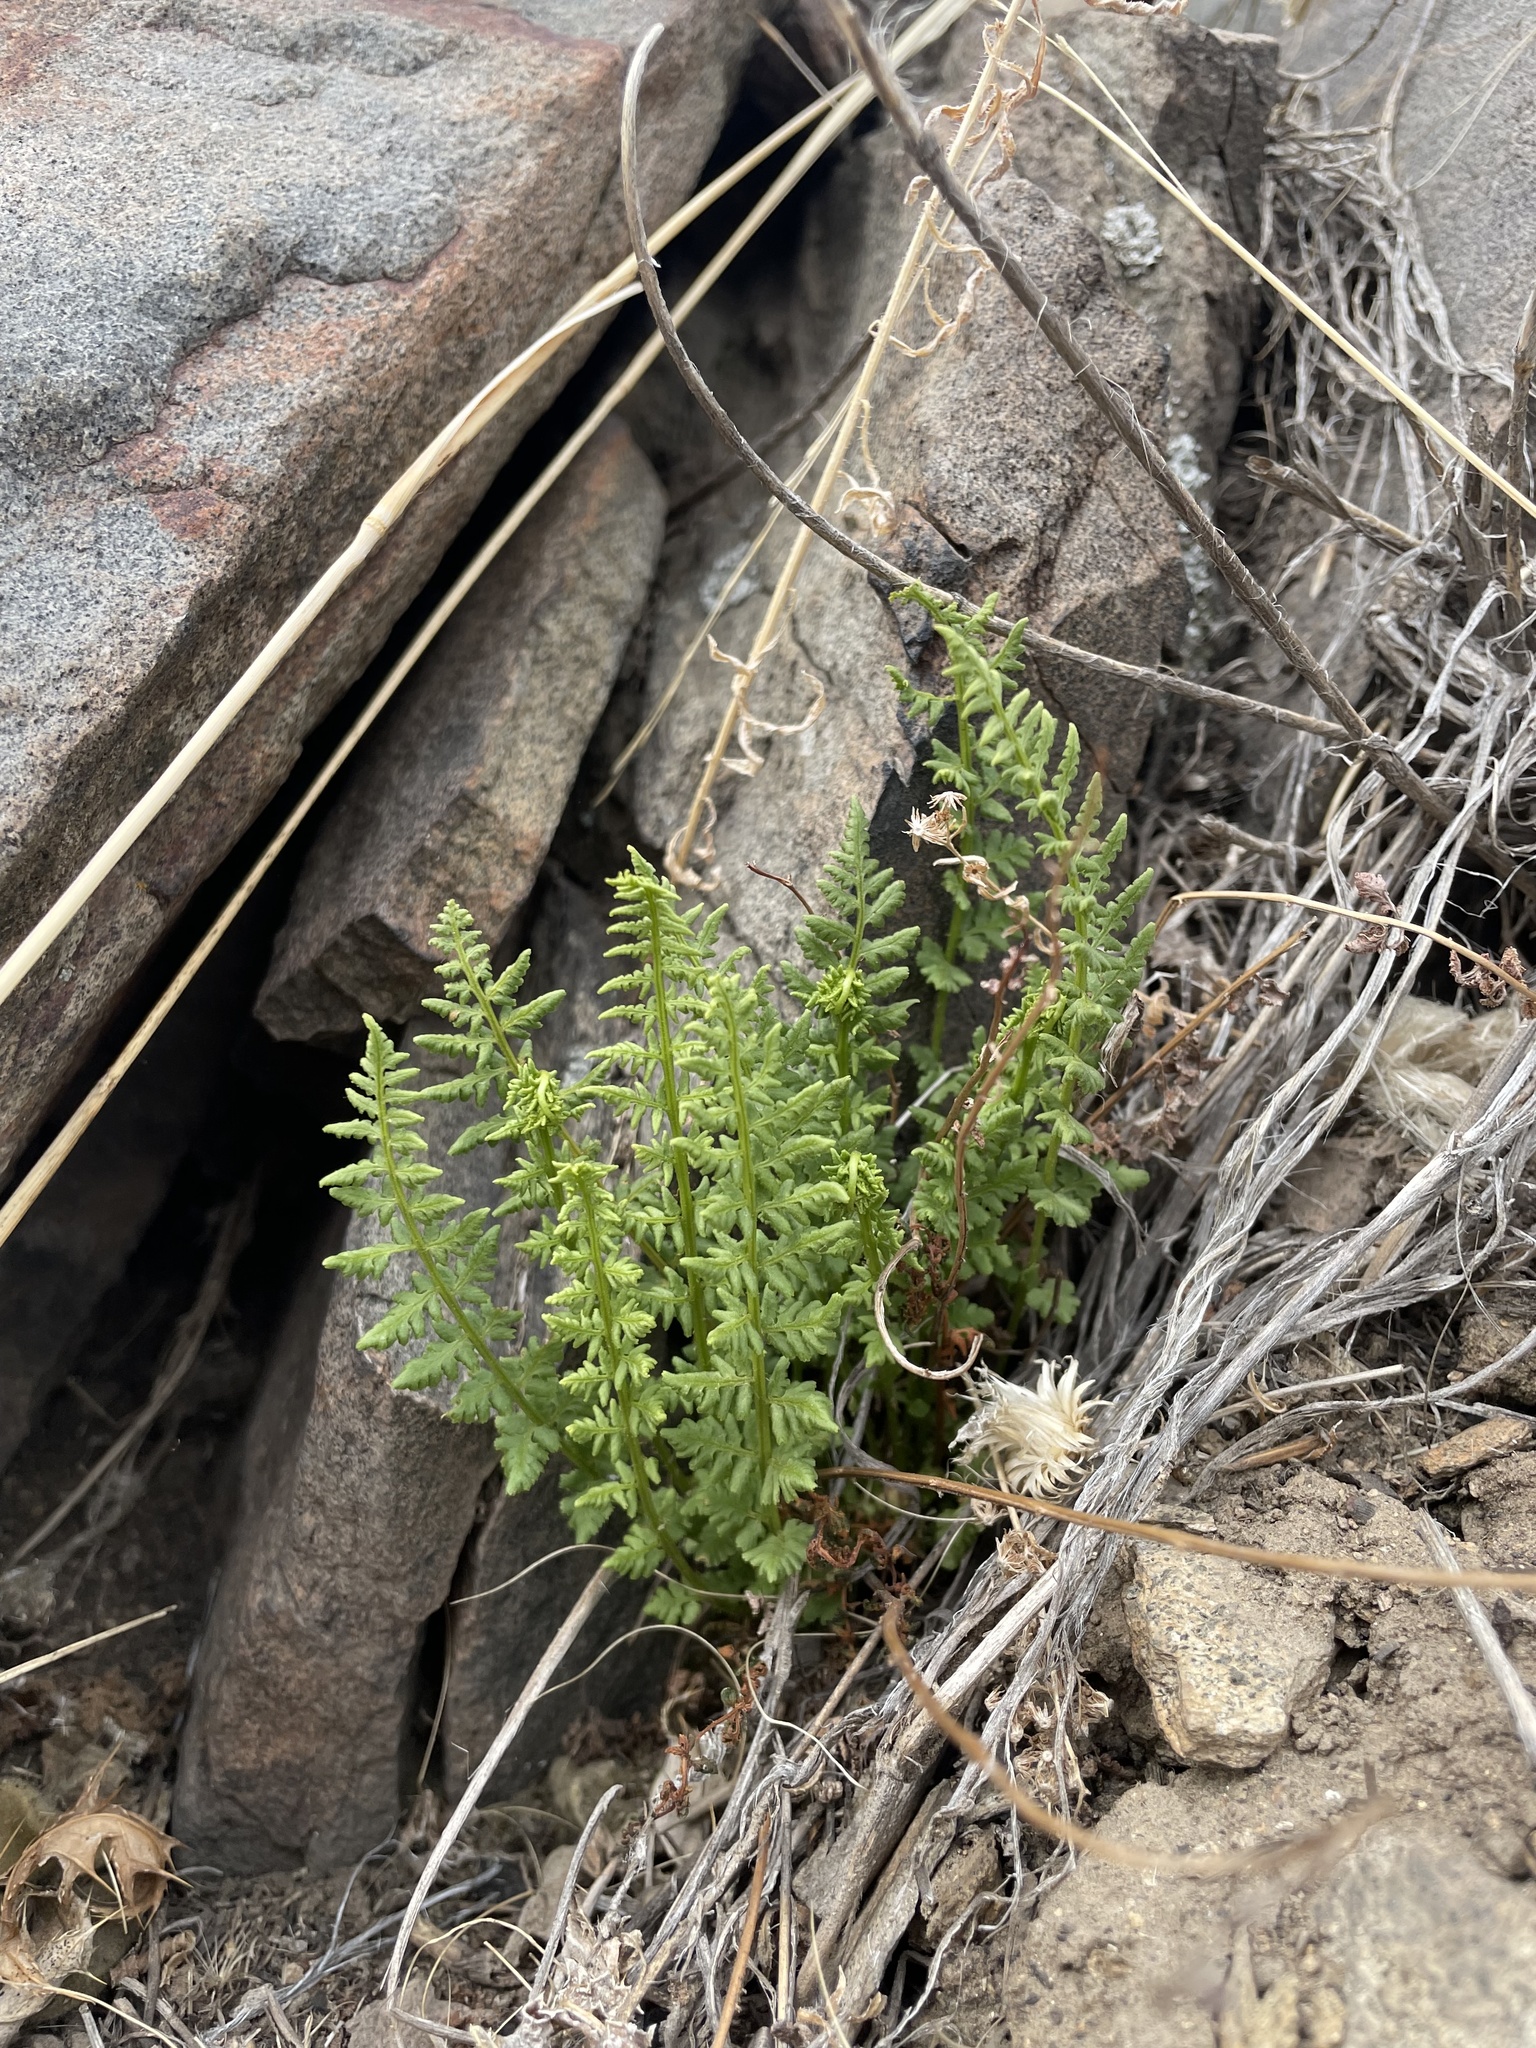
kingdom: Plantae
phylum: Tracheophyta
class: Polypodiopsida
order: Polypodiales
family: Woodsiaceae
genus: Physematium
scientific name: Physematium oreganum
